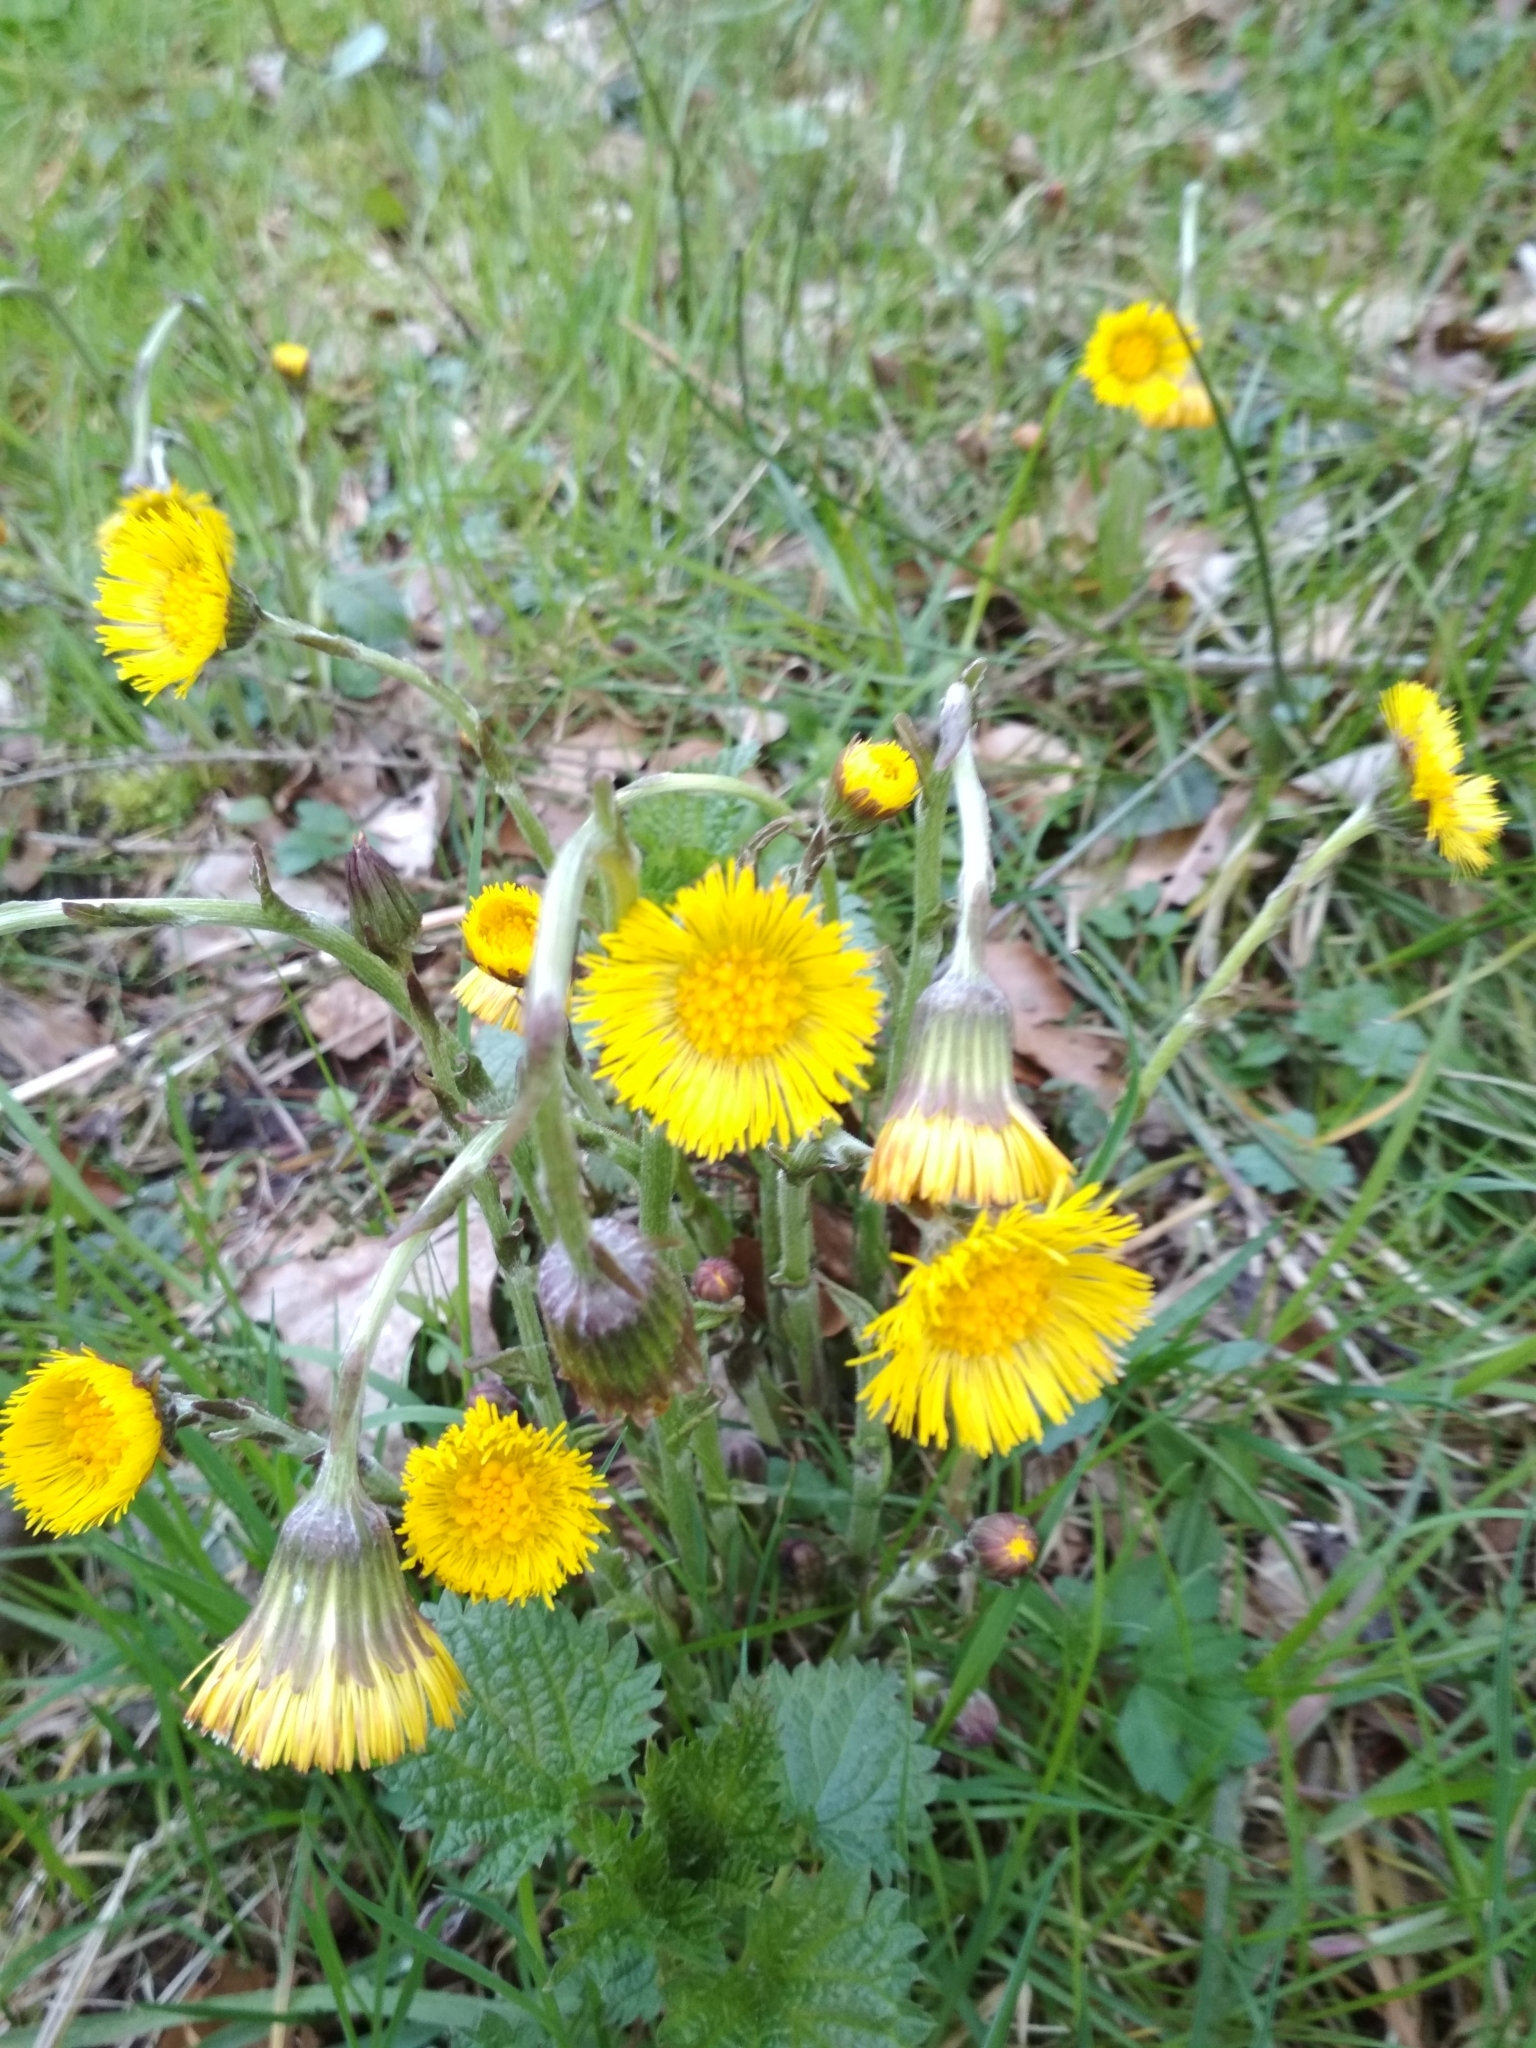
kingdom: Plantae
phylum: Tracheophyta
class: Magnoliopsida
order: Asterales
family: Asteraceae
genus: Tussilago
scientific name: Tussilago farfara
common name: Coltsfoot
